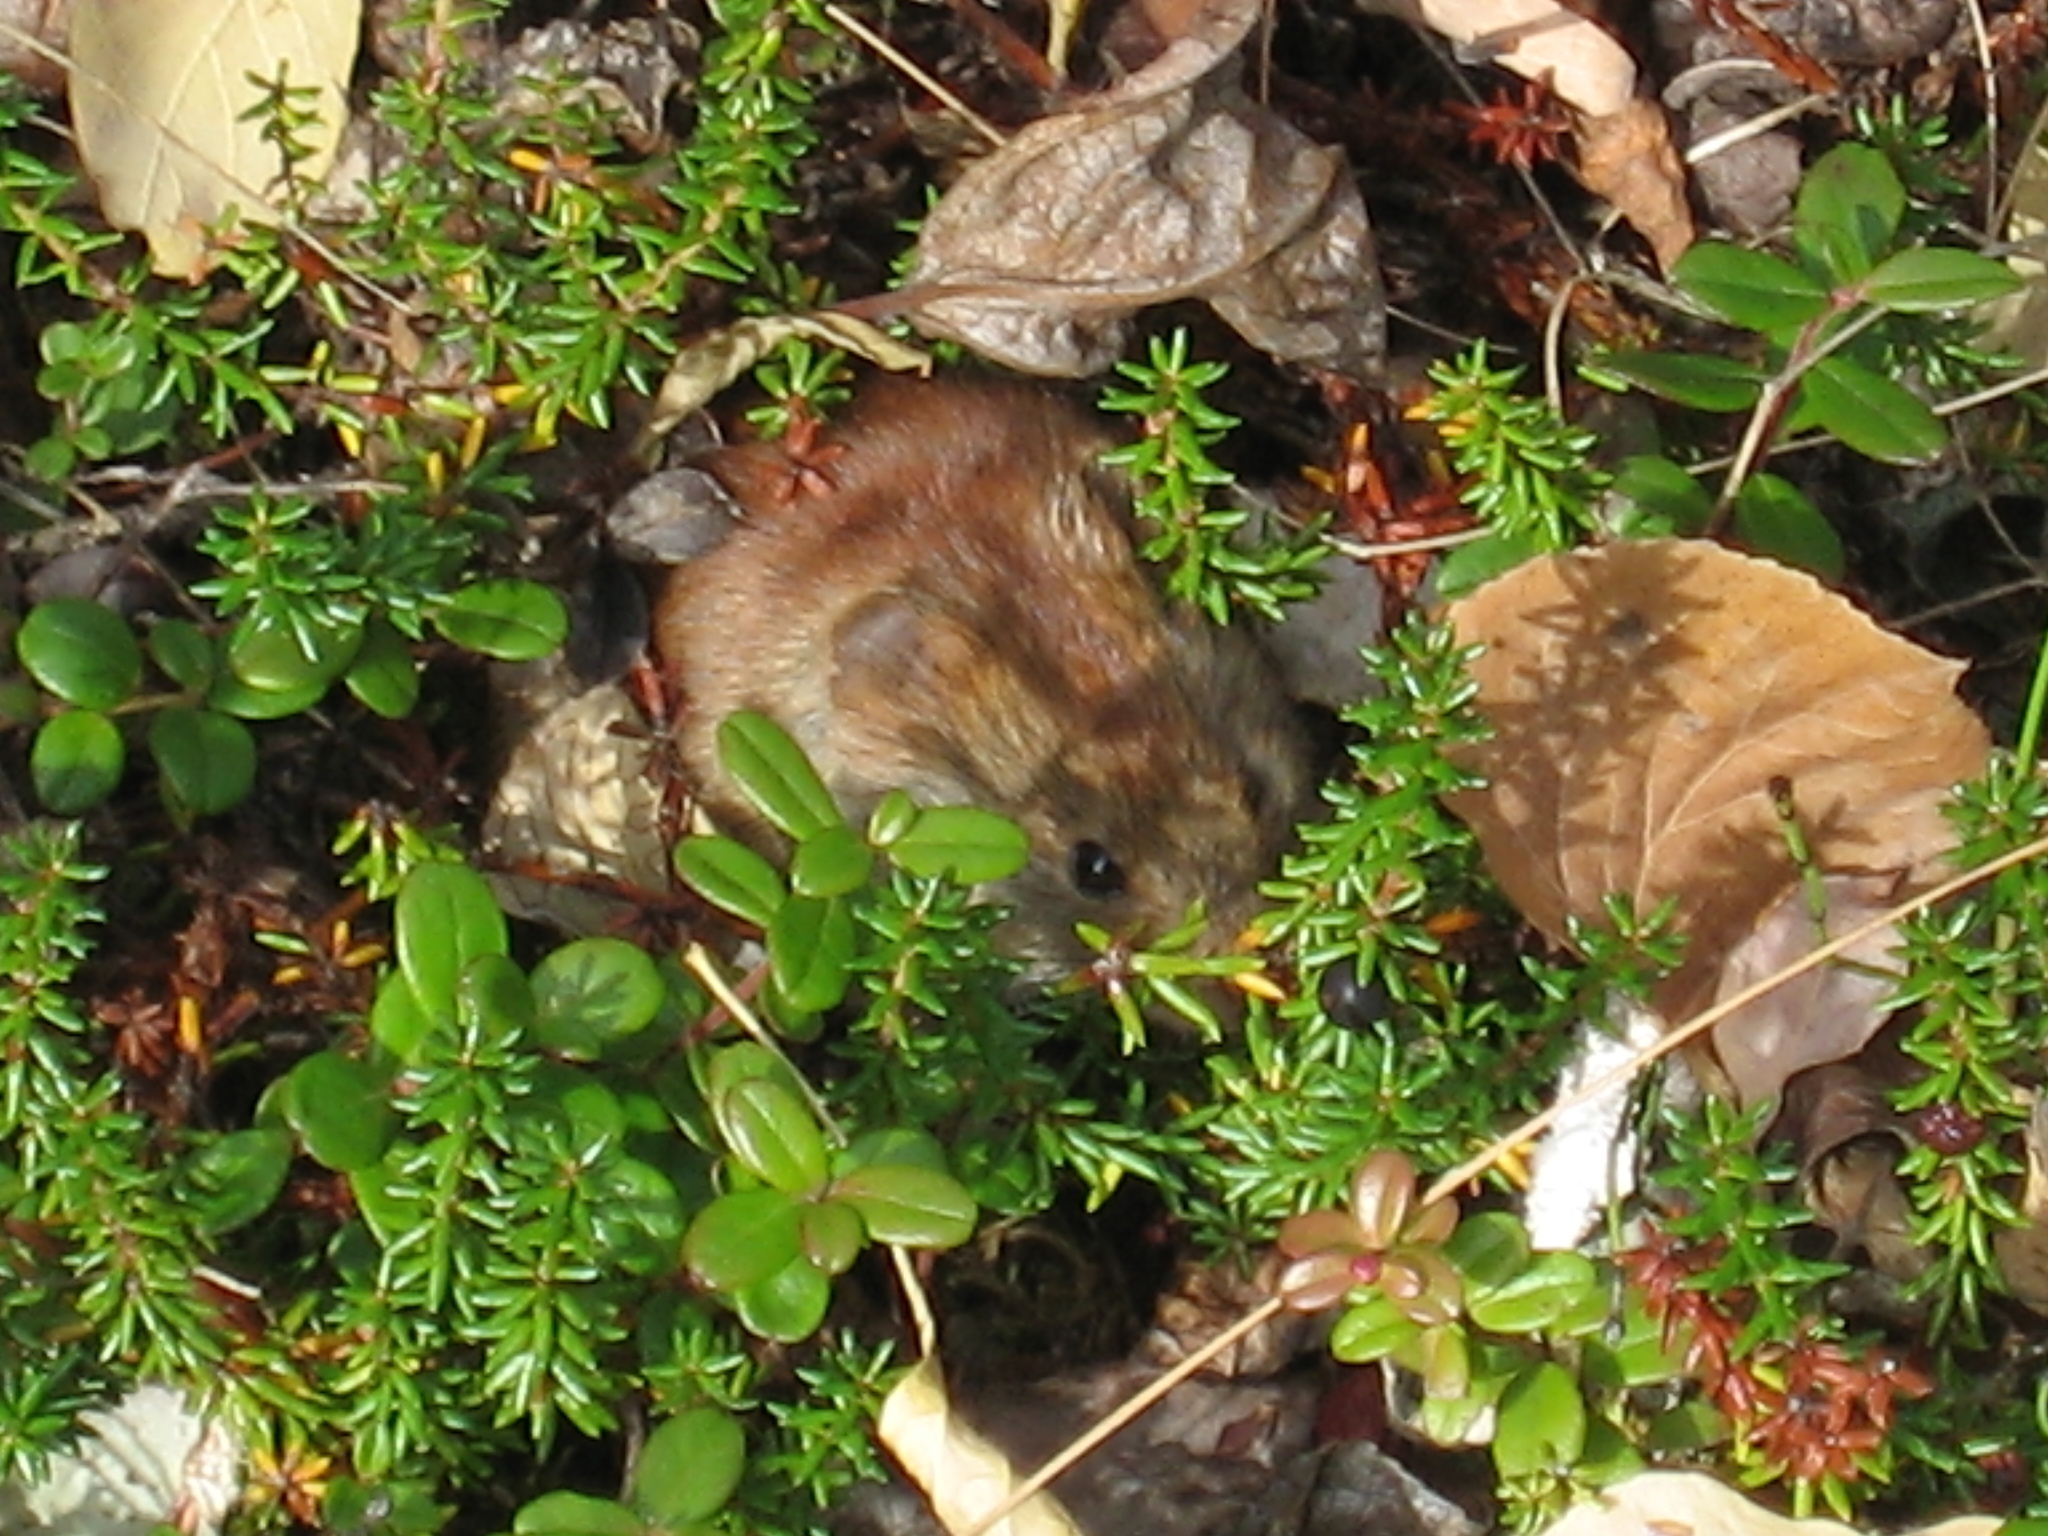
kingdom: Animalia
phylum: Chordata
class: Mammalia
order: Rodentia
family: Cricetidae
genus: Myodes
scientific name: Myodes rutilus
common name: Northern red-backed vole
